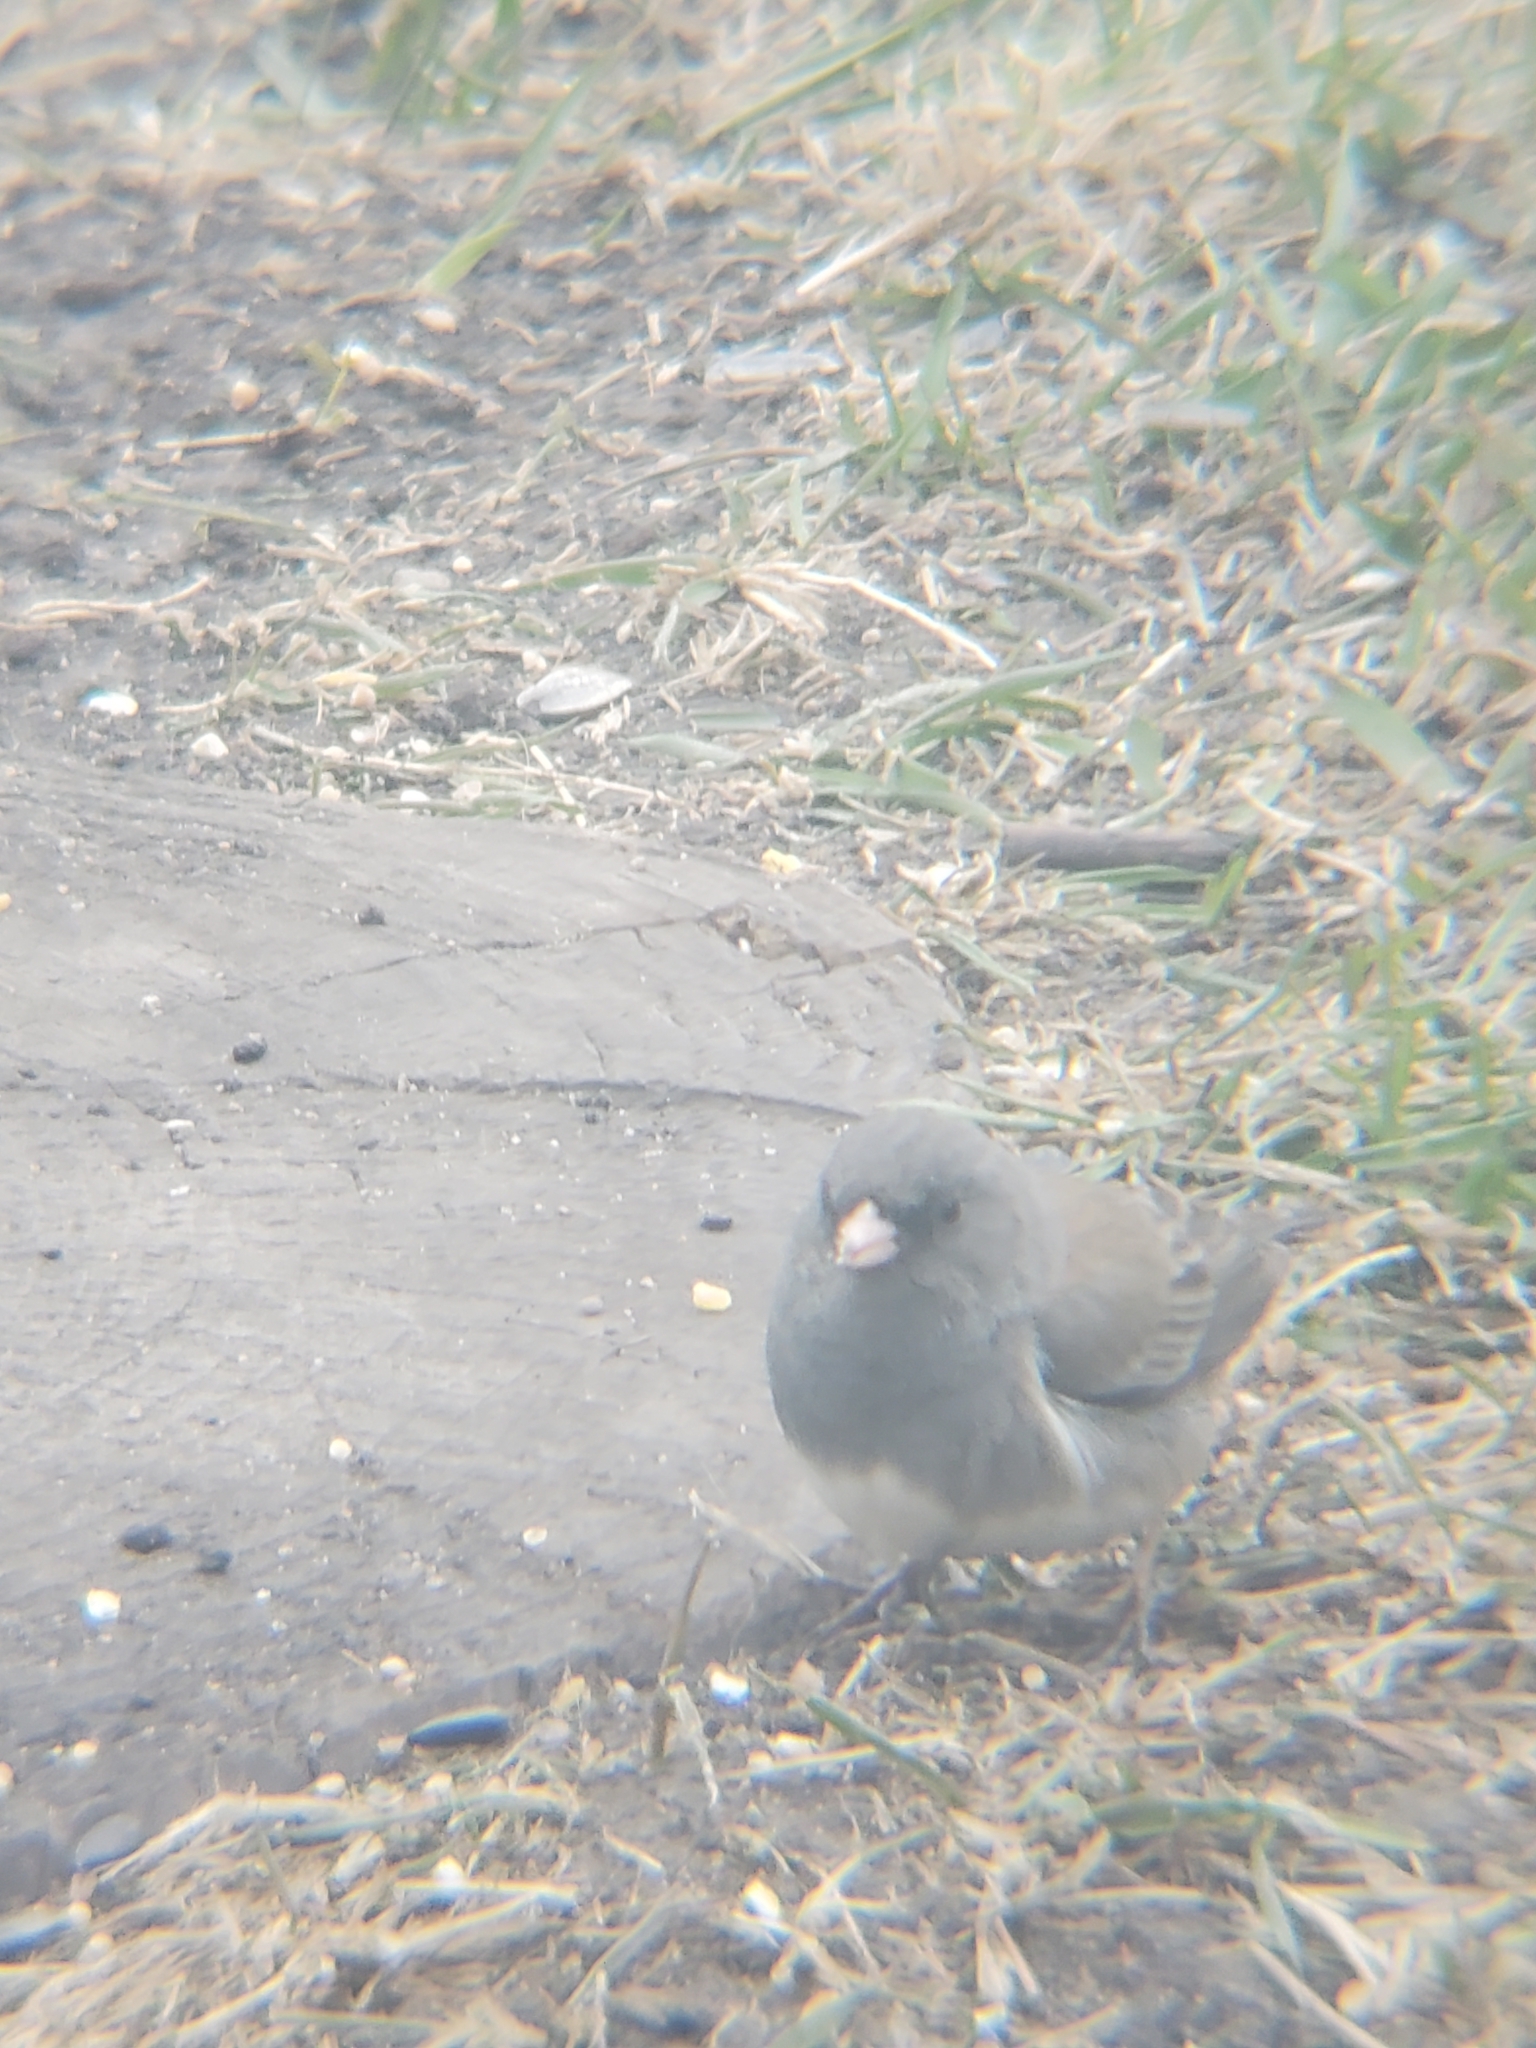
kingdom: Animalia
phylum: Chordata
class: Aves
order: Passeriformes
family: Passerellidae
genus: Junco
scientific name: Junco hyemalis
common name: Dark-eyed junco
